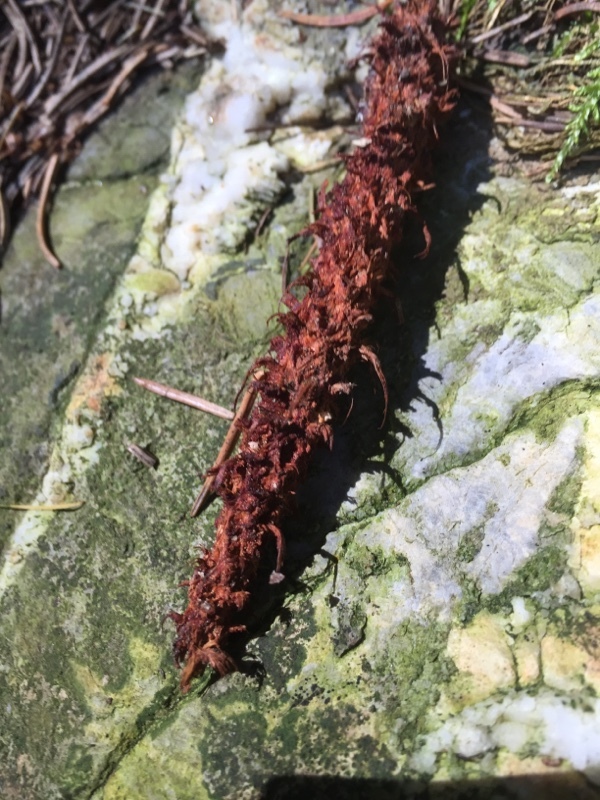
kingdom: Animalia
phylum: Chordata
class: Mammalia
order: Rodentia
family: Sciuridae
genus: Sciurus
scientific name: Sciurus vulgaris
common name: Eurasian red squirrel
